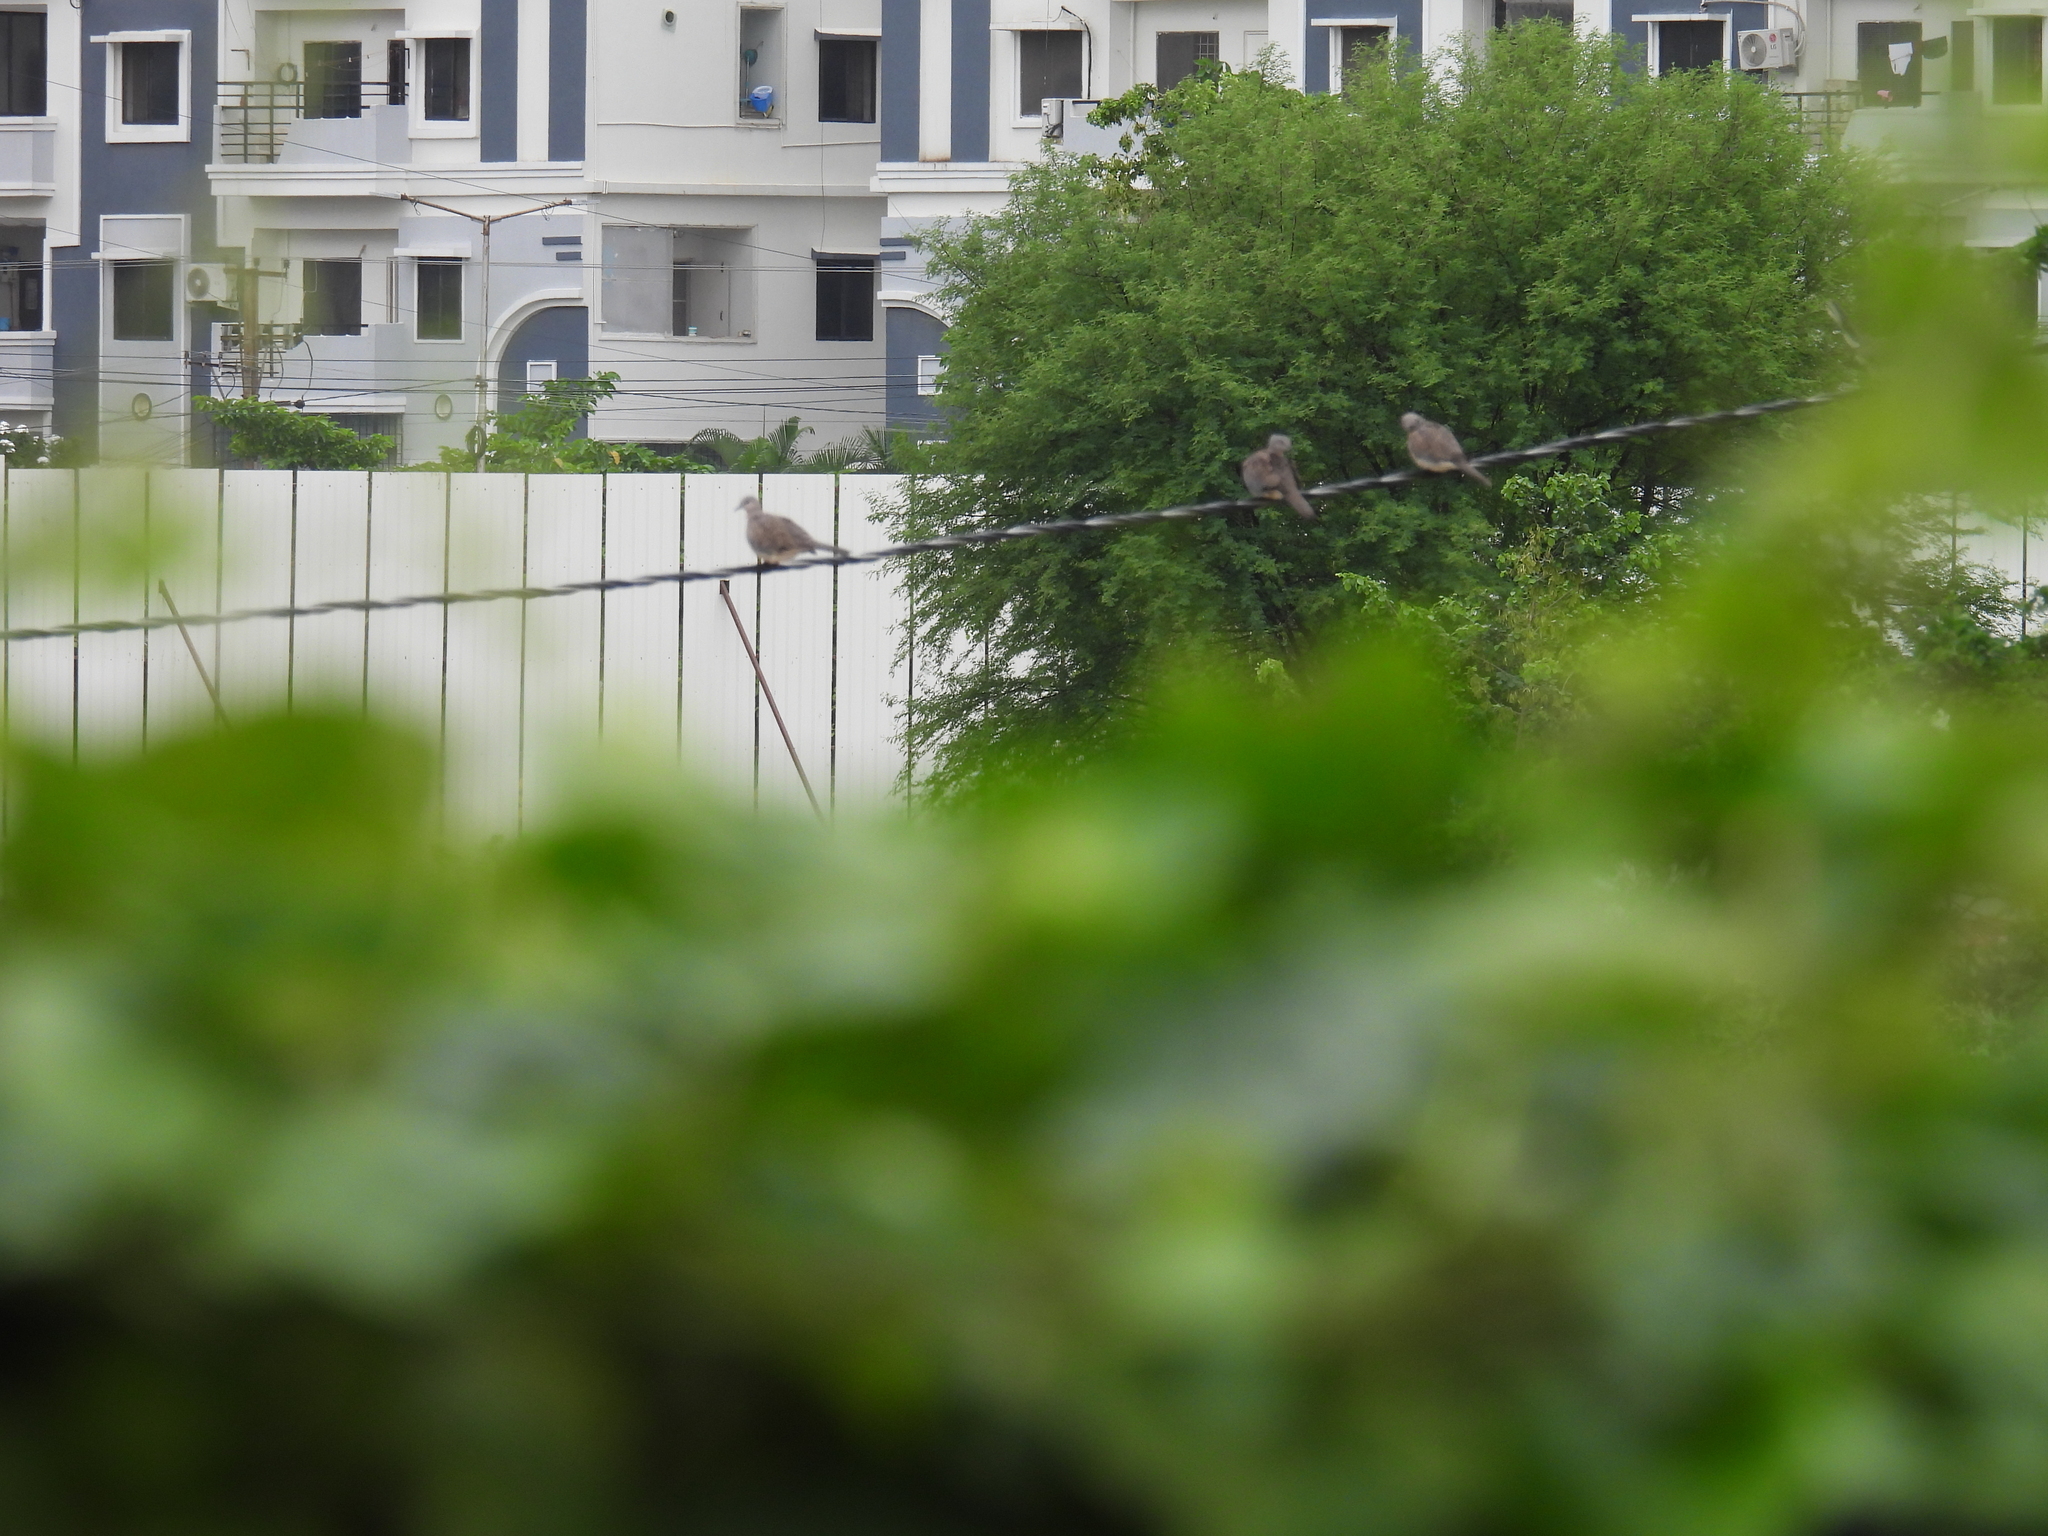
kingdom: Animalia
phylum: Chordata
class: Aves
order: Columbiformes
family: Columbidae
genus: Spilopelia
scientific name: Spilopelia chinensis
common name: Spotted dove
